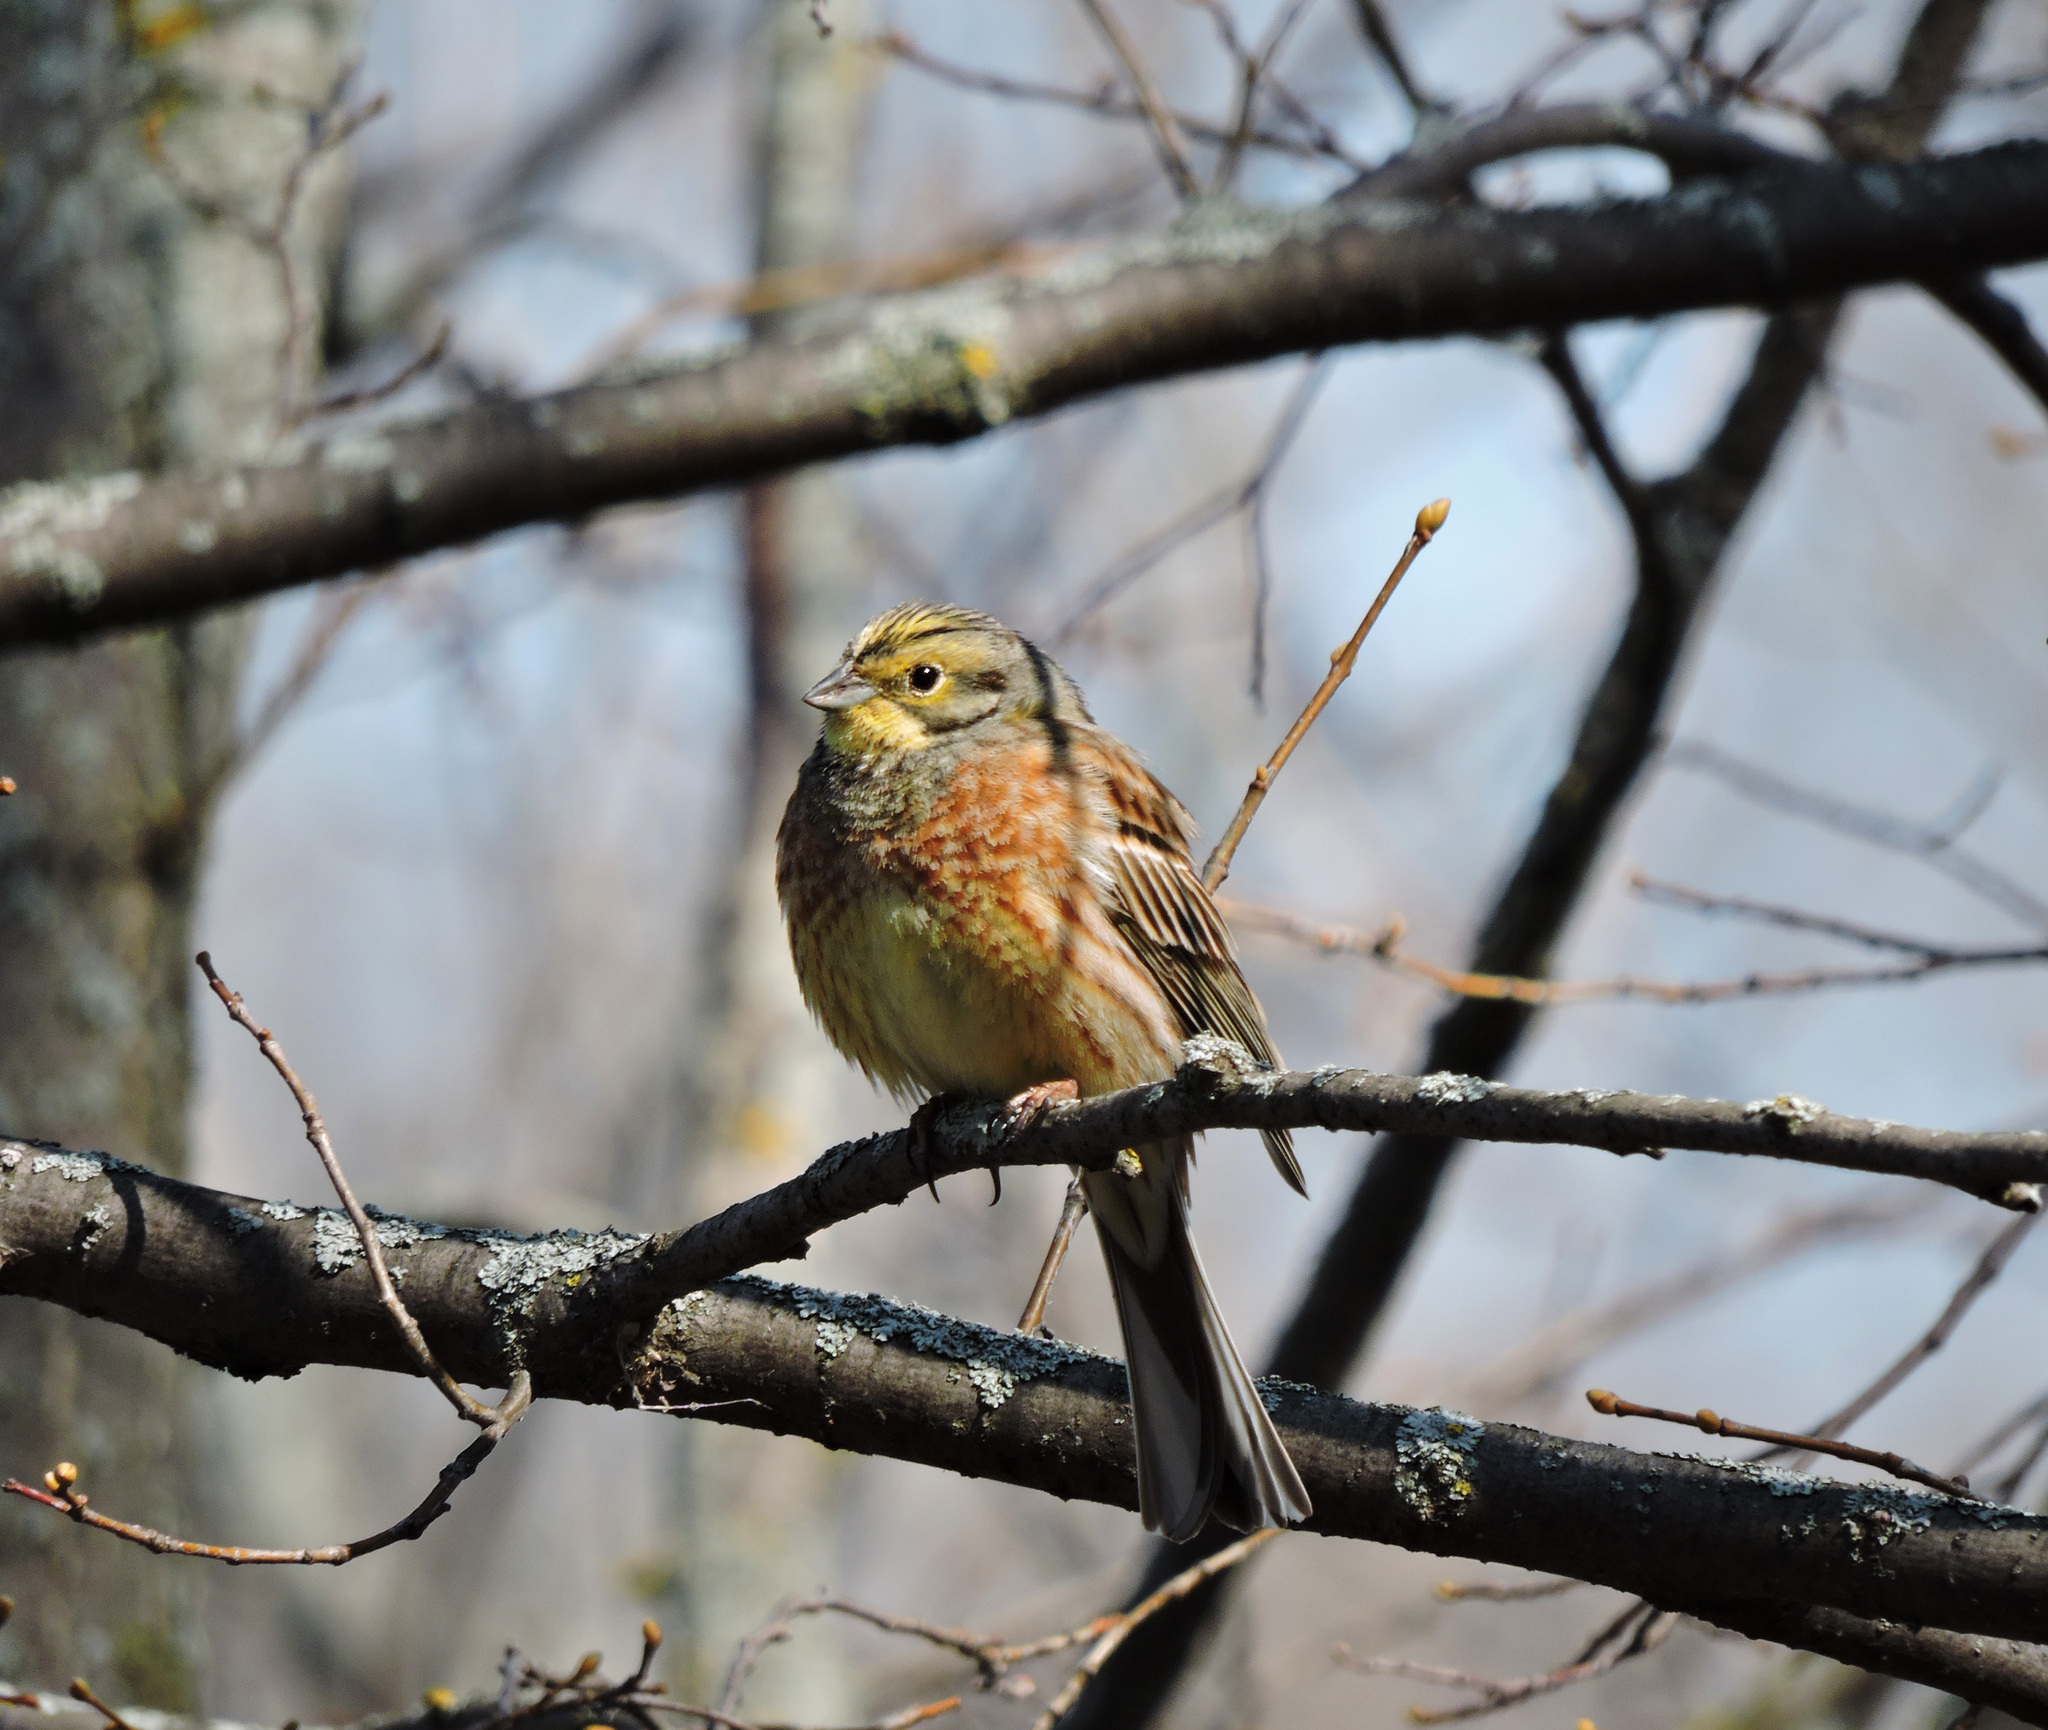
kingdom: Animalia
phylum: Chordata
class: Aves
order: Passeriformes
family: Emberizidae
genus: Emberiza
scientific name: Emberiza citrinella
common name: Yellowhammer
